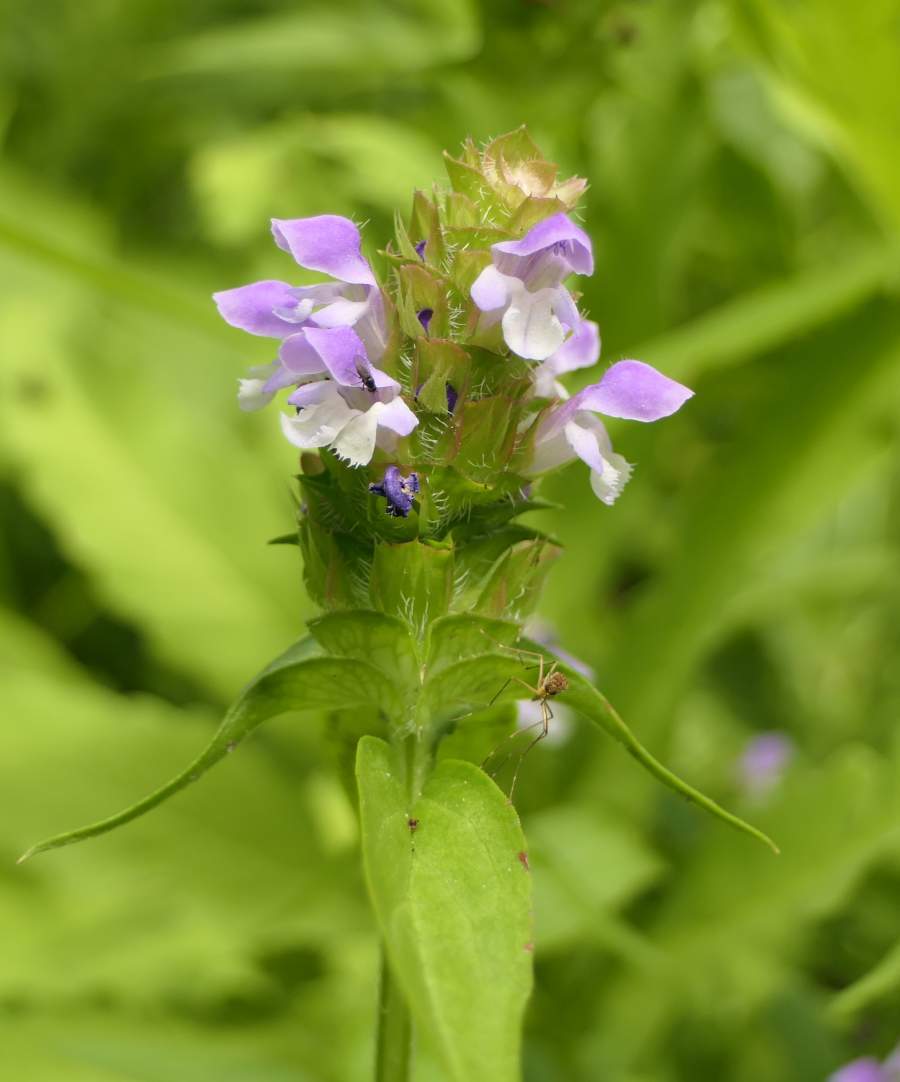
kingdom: Plantae
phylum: Tracheophyta
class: Magnoliopsida
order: Lamiales
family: Lamiaceae
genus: Prunella
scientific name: Prunella vulgaris
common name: Heal-all
